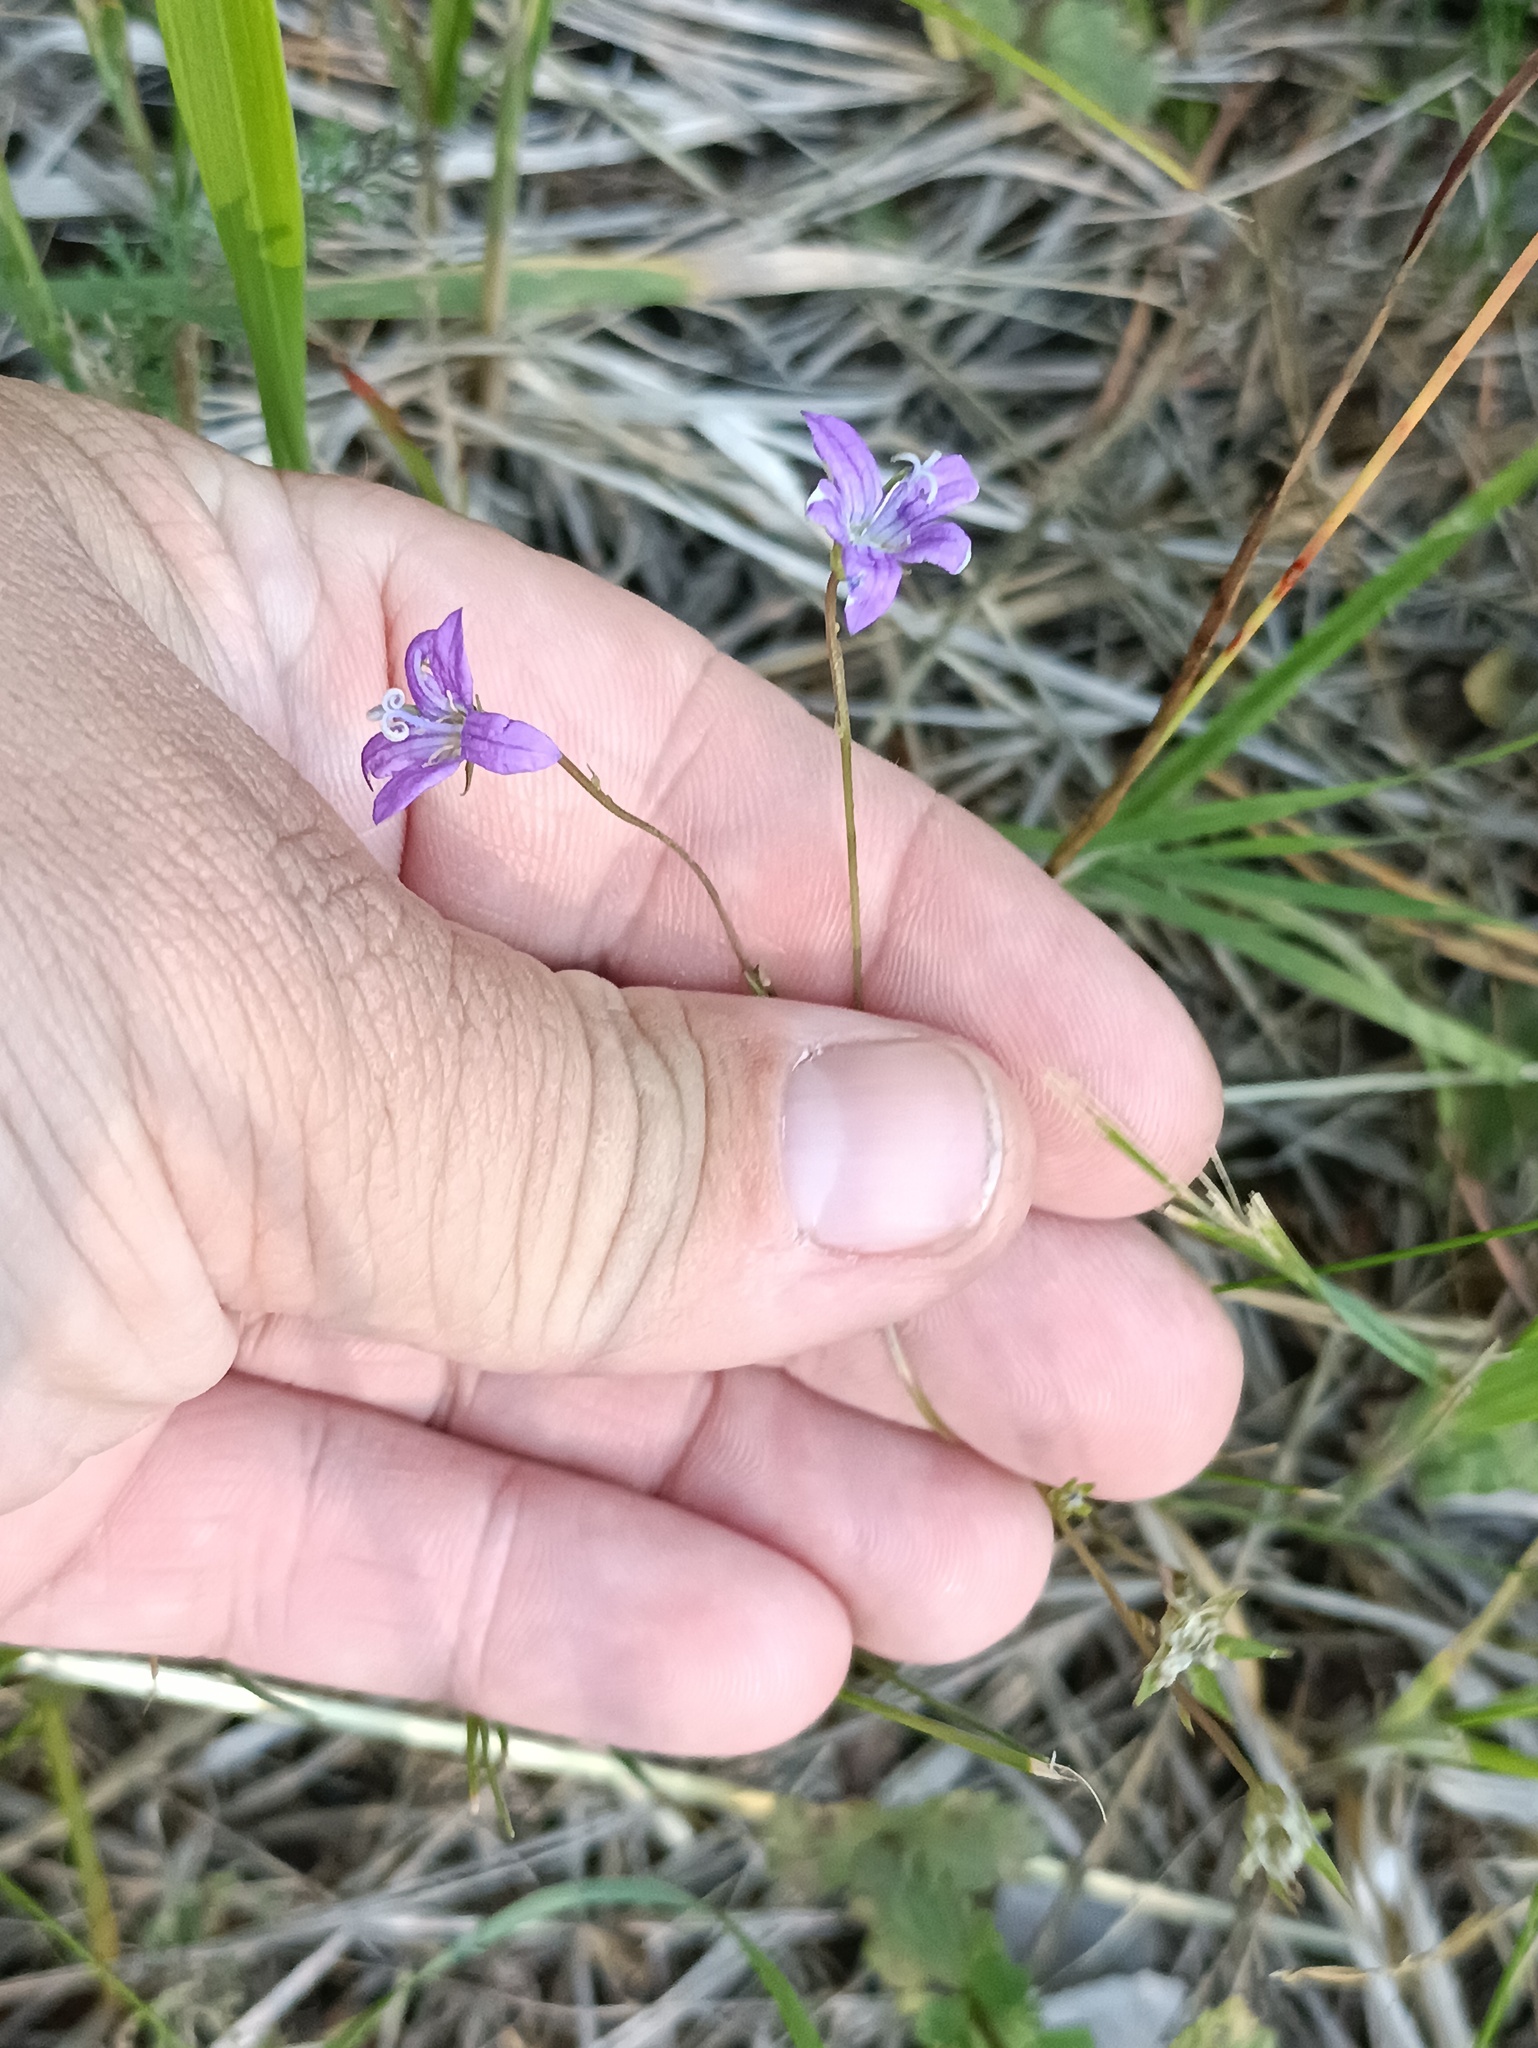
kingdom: Plantae
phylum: Tracheophyta
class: Magnoliopsida
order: Asterales
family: Campanulaceae
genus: Campanula
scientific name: Campanula patula
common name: Spreading bellflower
